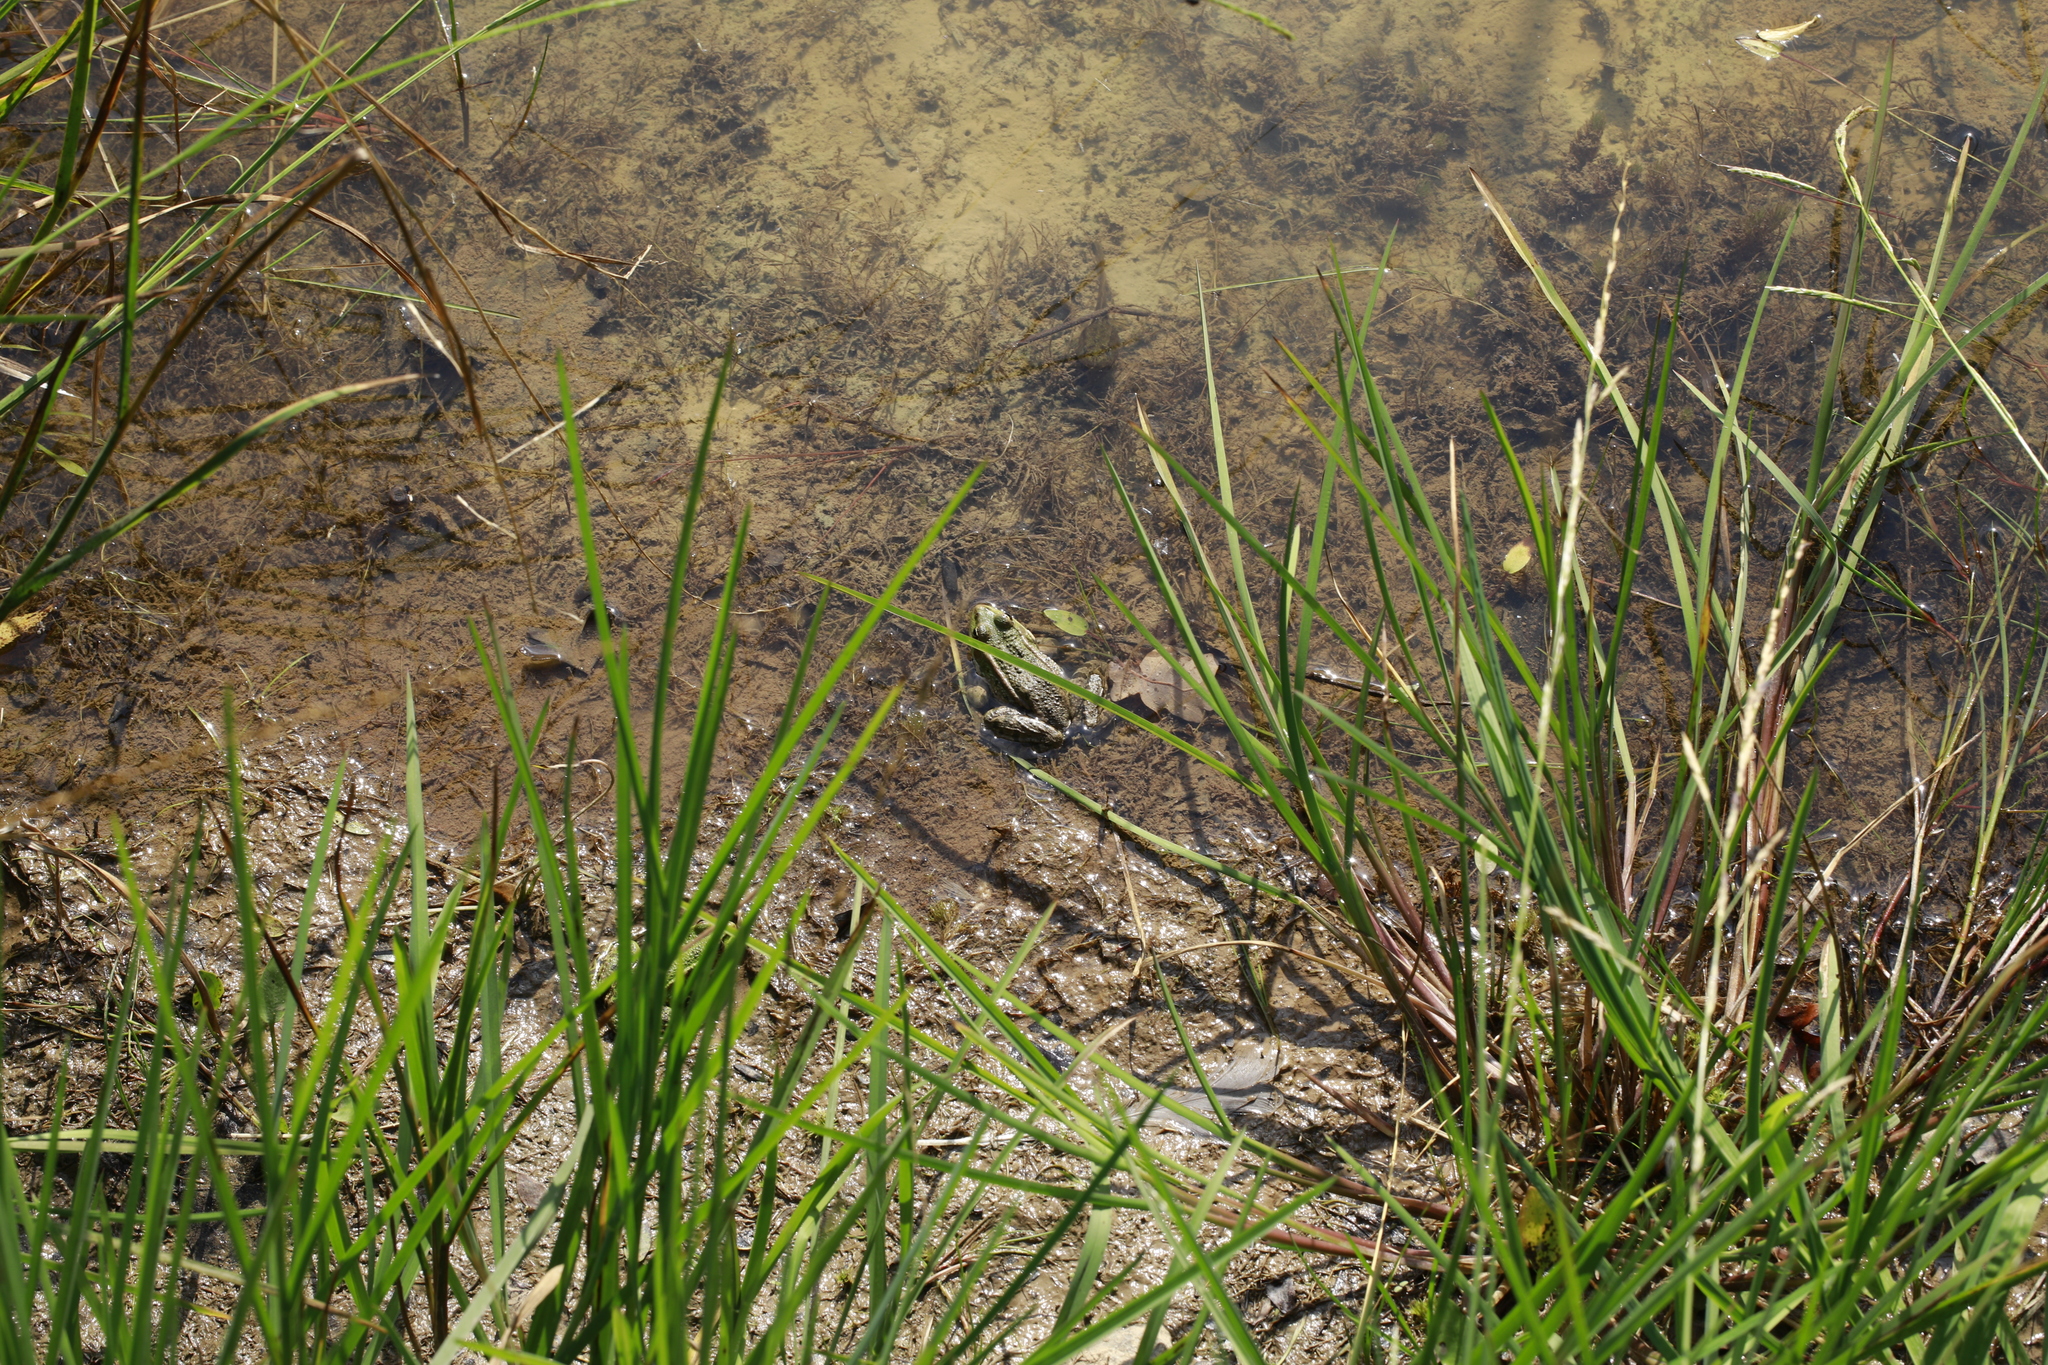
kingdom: Animalia
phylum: Chordata
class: Amphibia
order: Anura
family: Ranidae
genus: Pelophylax
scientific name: Pelophylax
